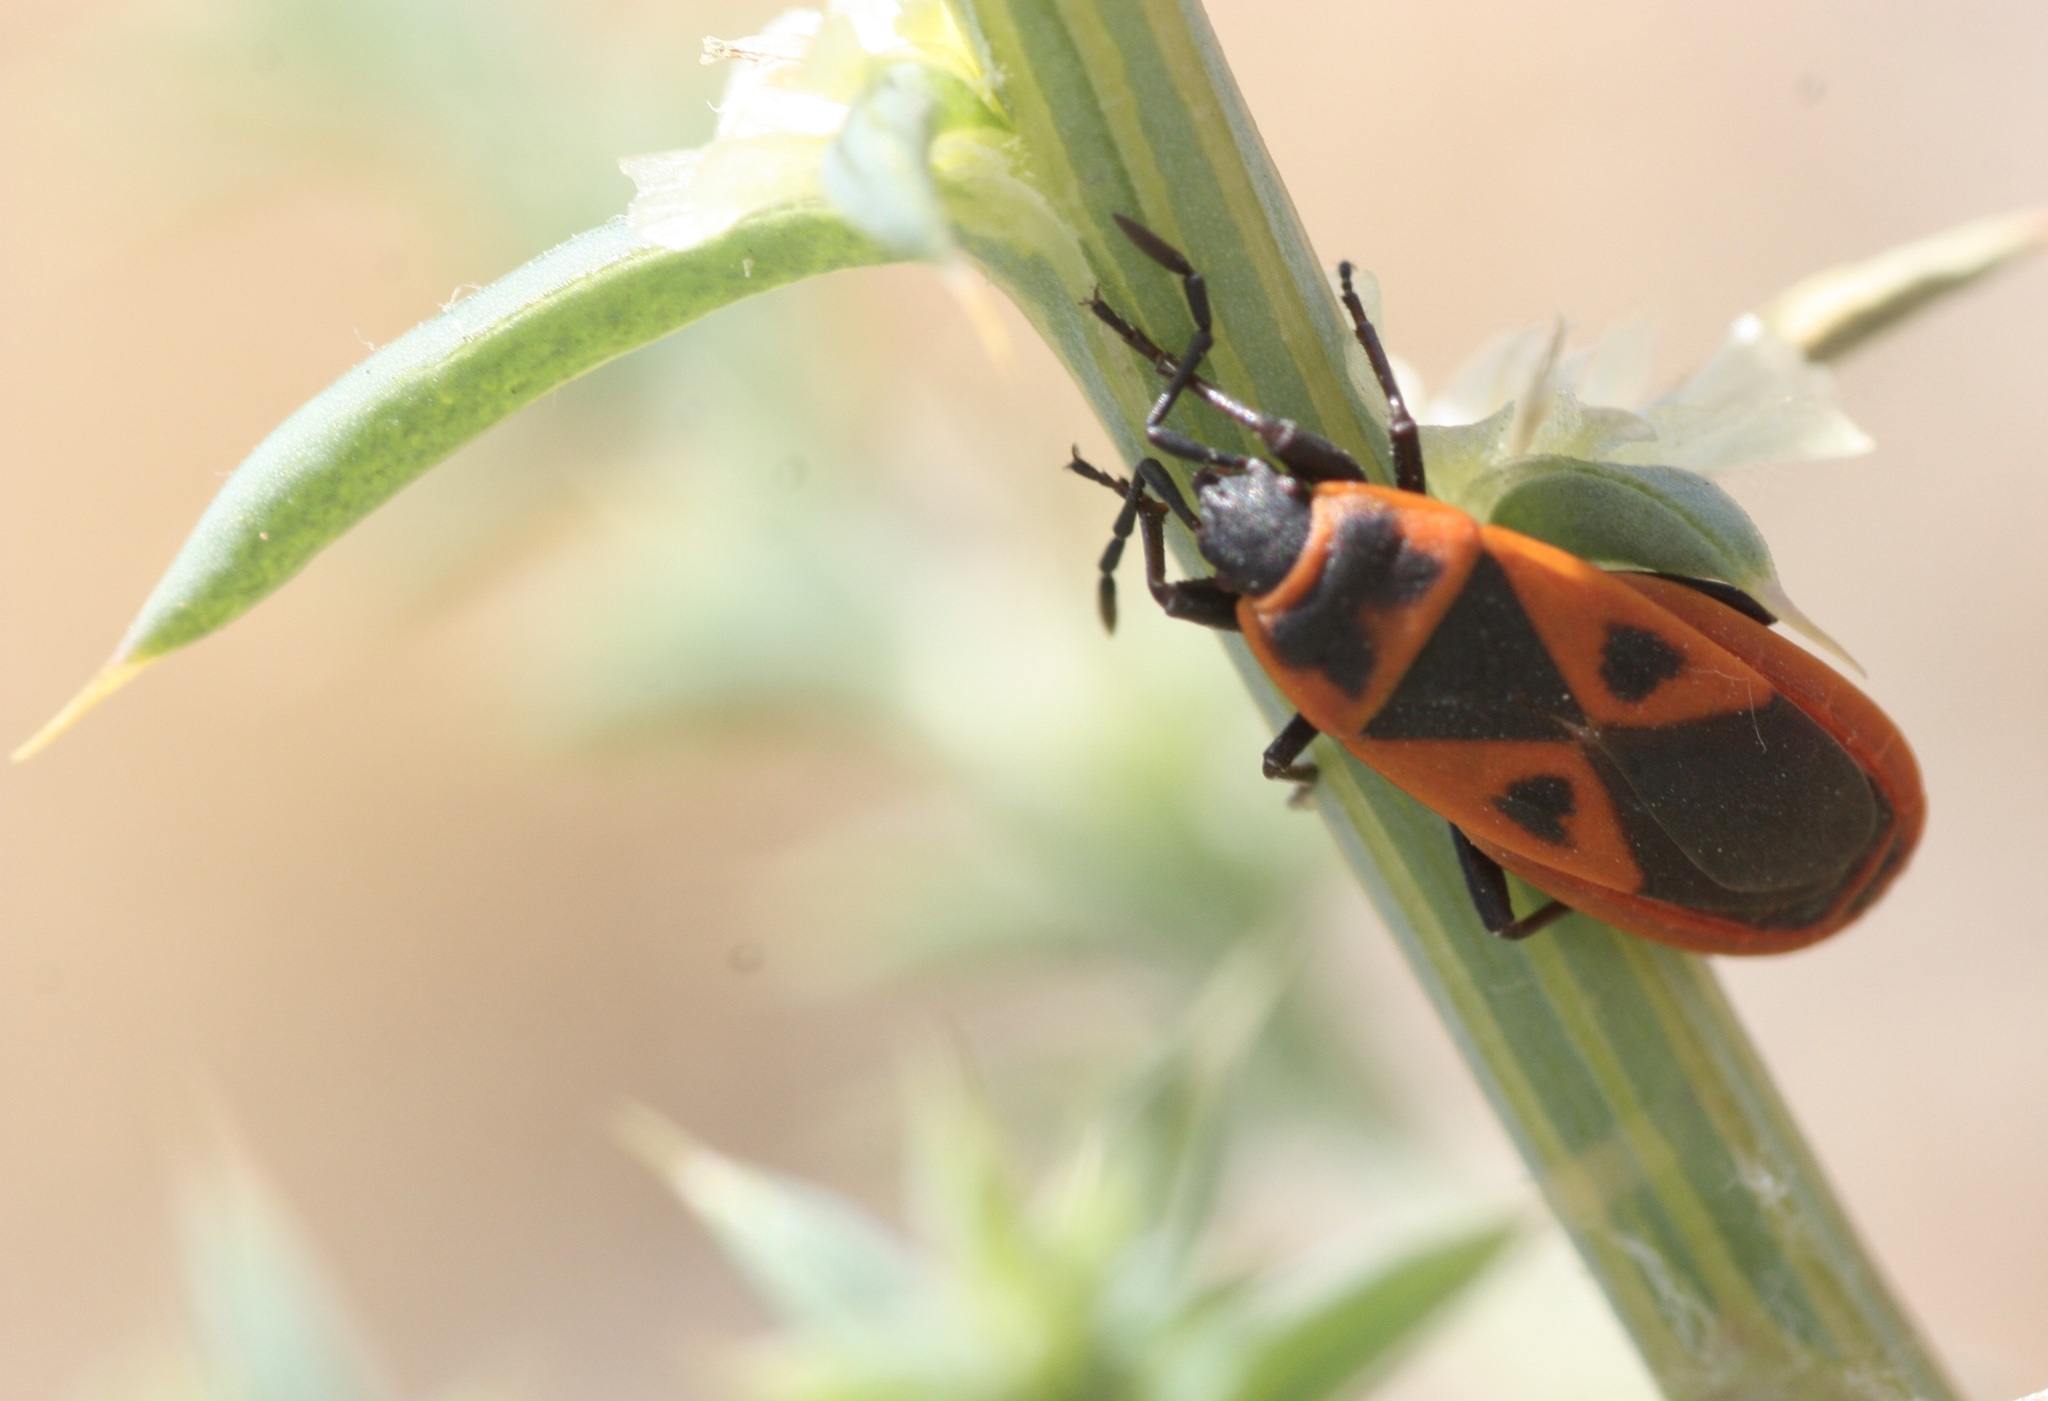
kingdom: Animalia
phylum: Arthropoda
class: Insecta
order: Hemiptera
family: Pyrrhocoridae
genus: Scantius
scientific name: Scantius aegyptius
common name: Red bug
